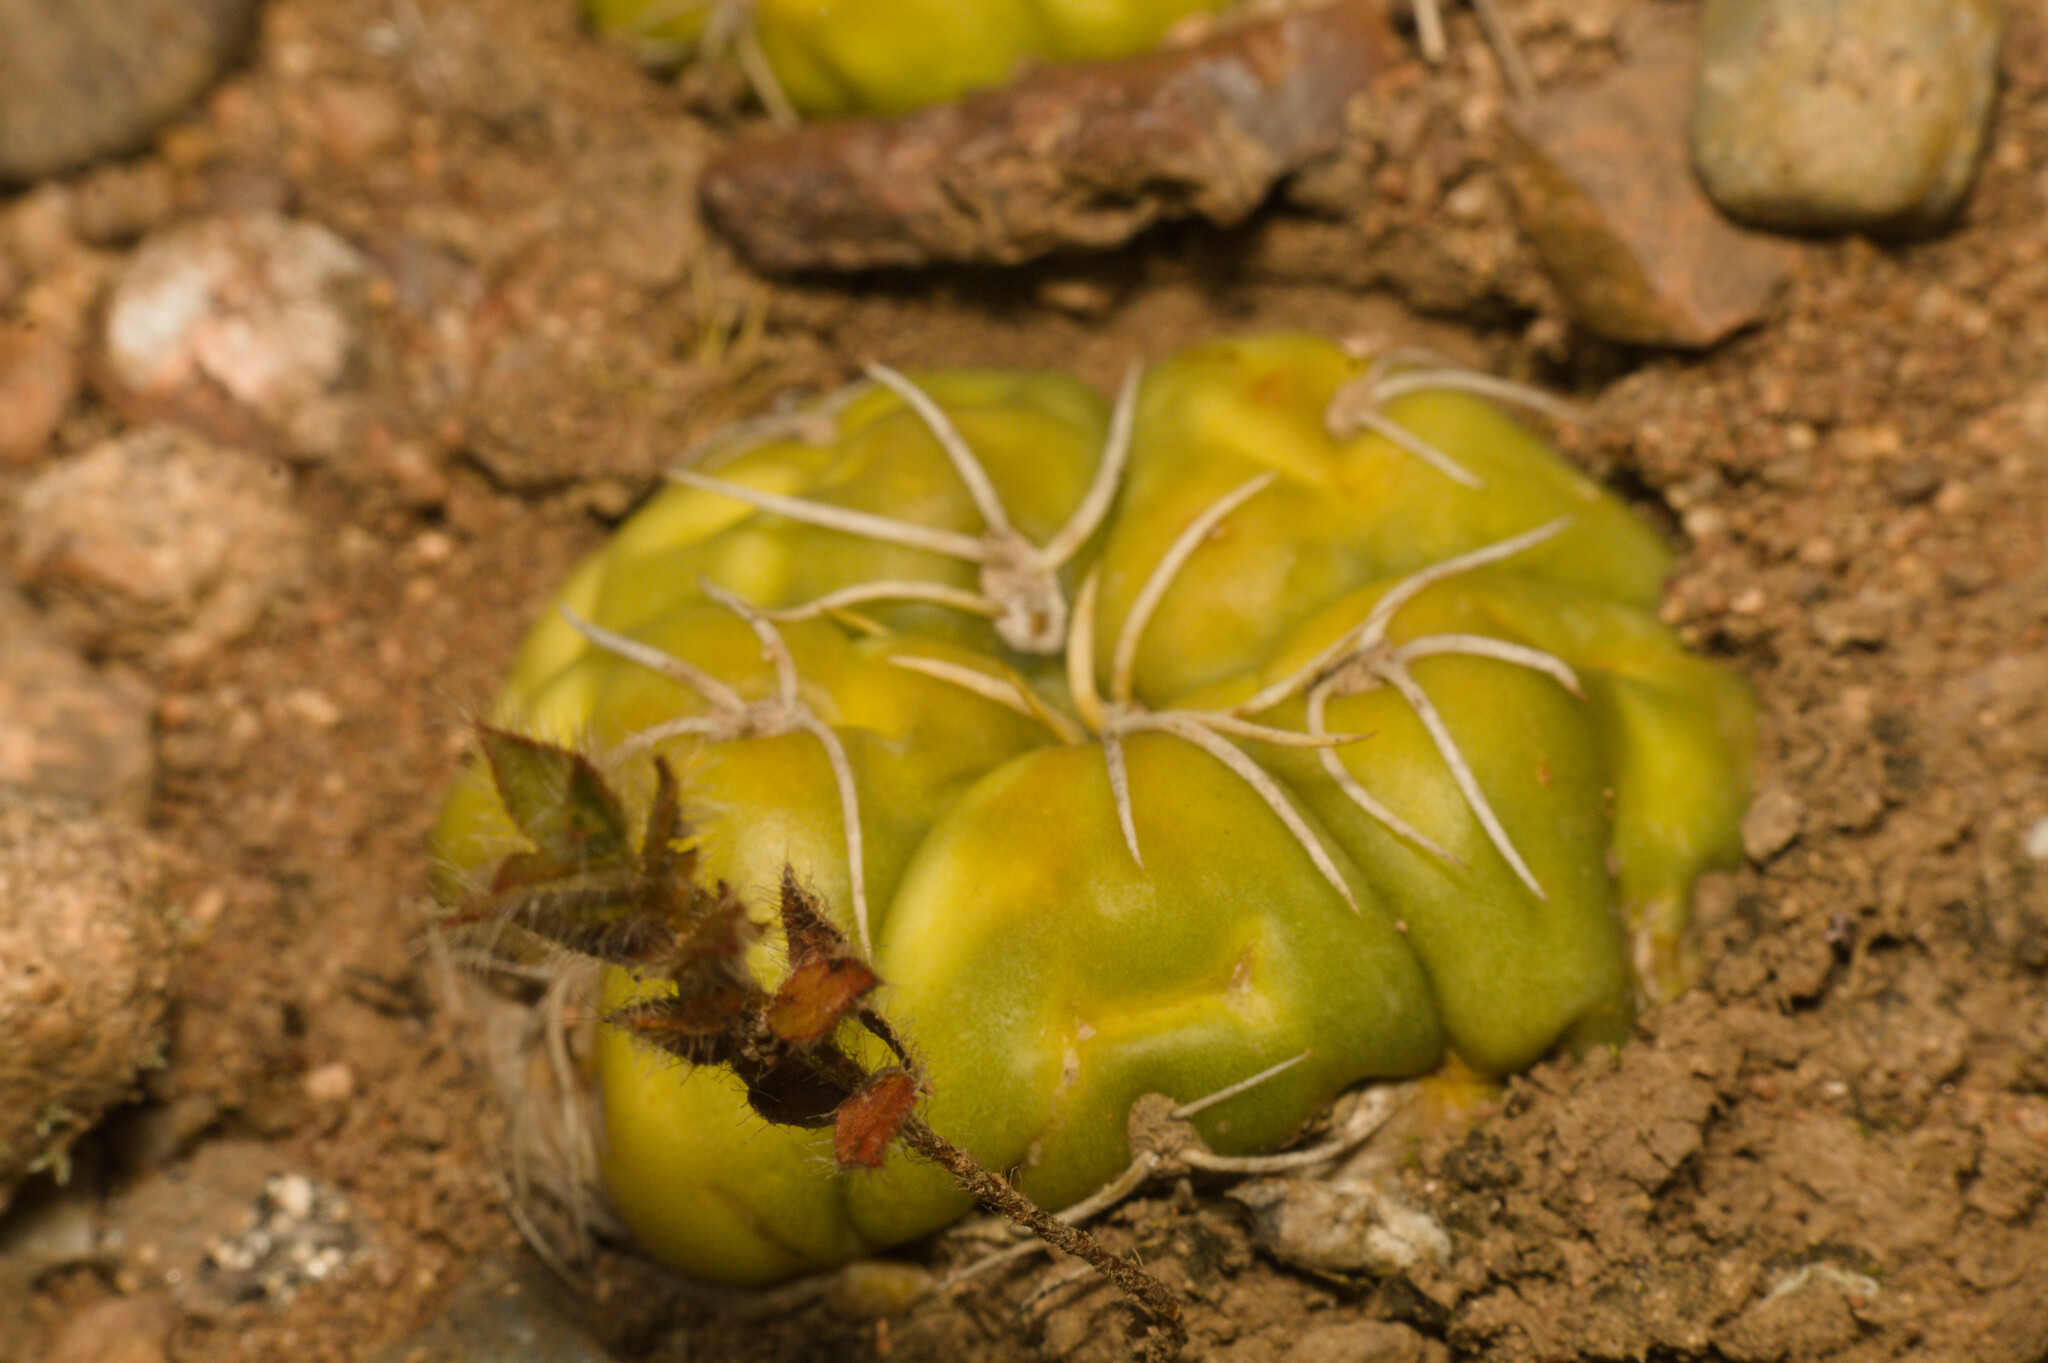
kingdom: Plantae
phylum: Tracheophyta
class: Magnoliopsida
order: Caryophyllales
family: Cactaceae
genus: Gymnocalycium
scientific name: Gymnocalycium denudatum
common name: Spider cactus
